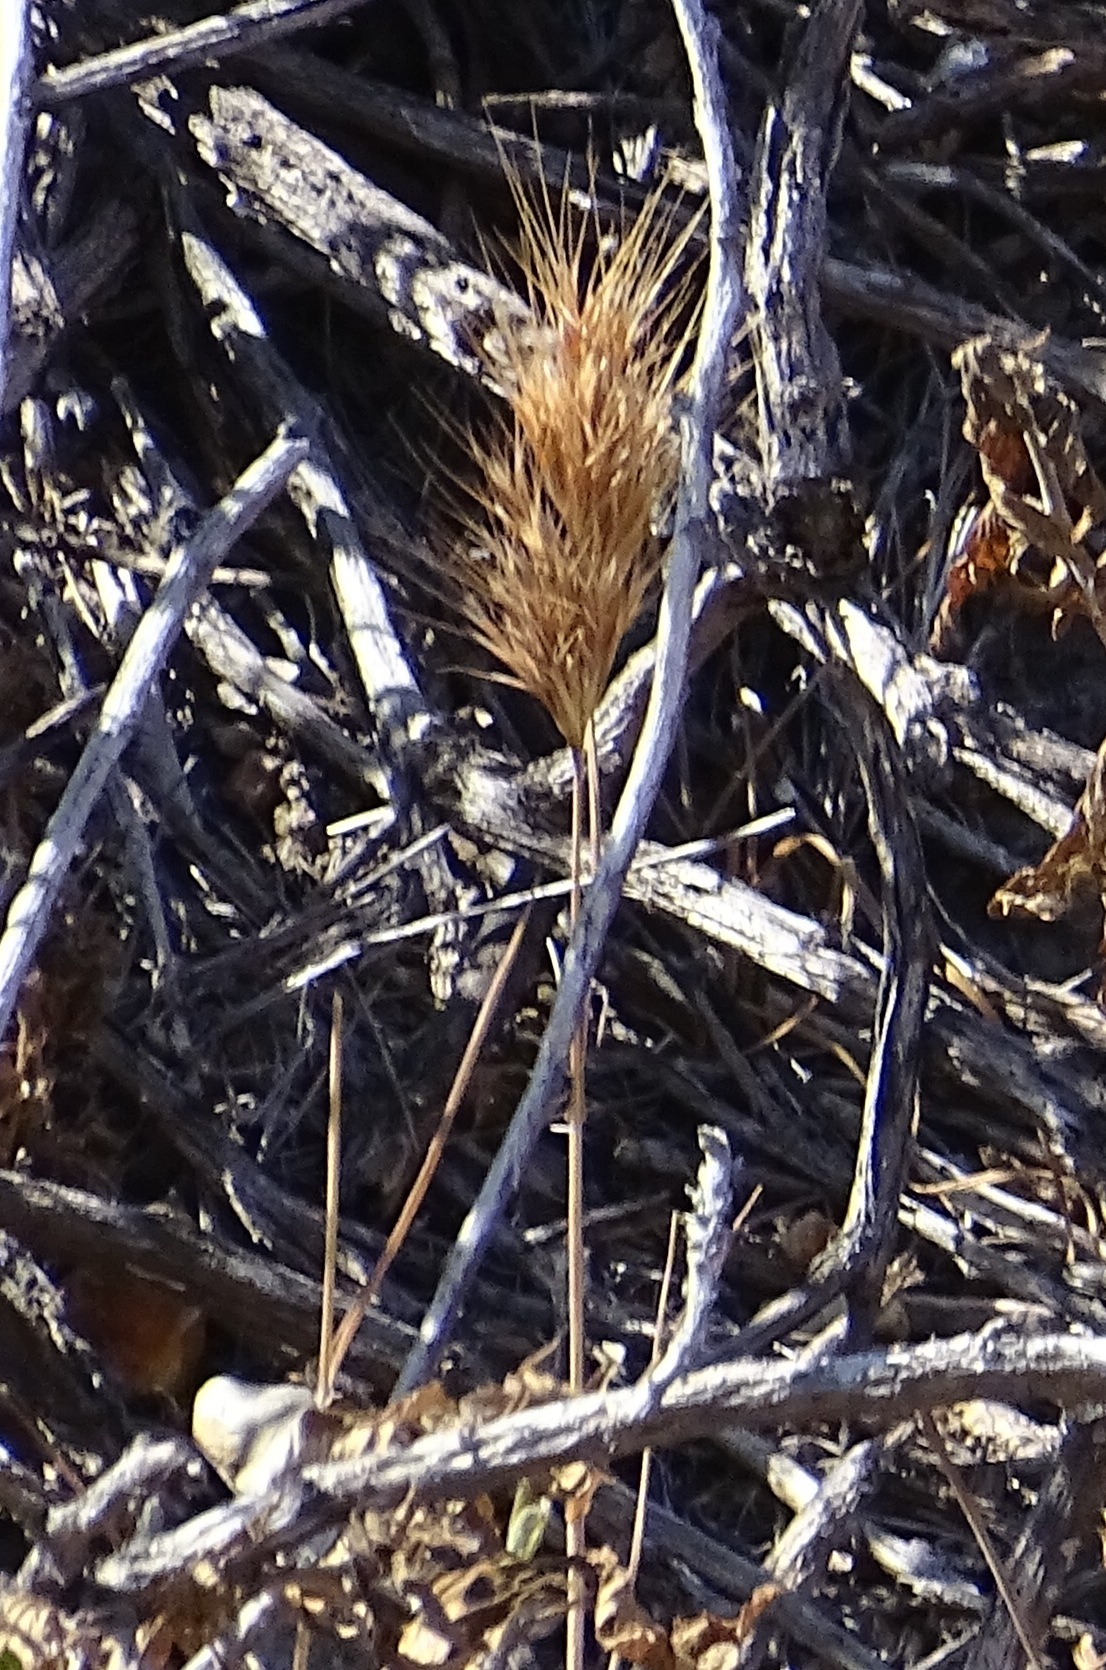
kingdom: Plantae
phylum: Tracheophyta
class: Liliopsida
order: Poales
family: Poaceae
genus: Bromus
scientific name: Bromus madritensis
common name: Compact brome
